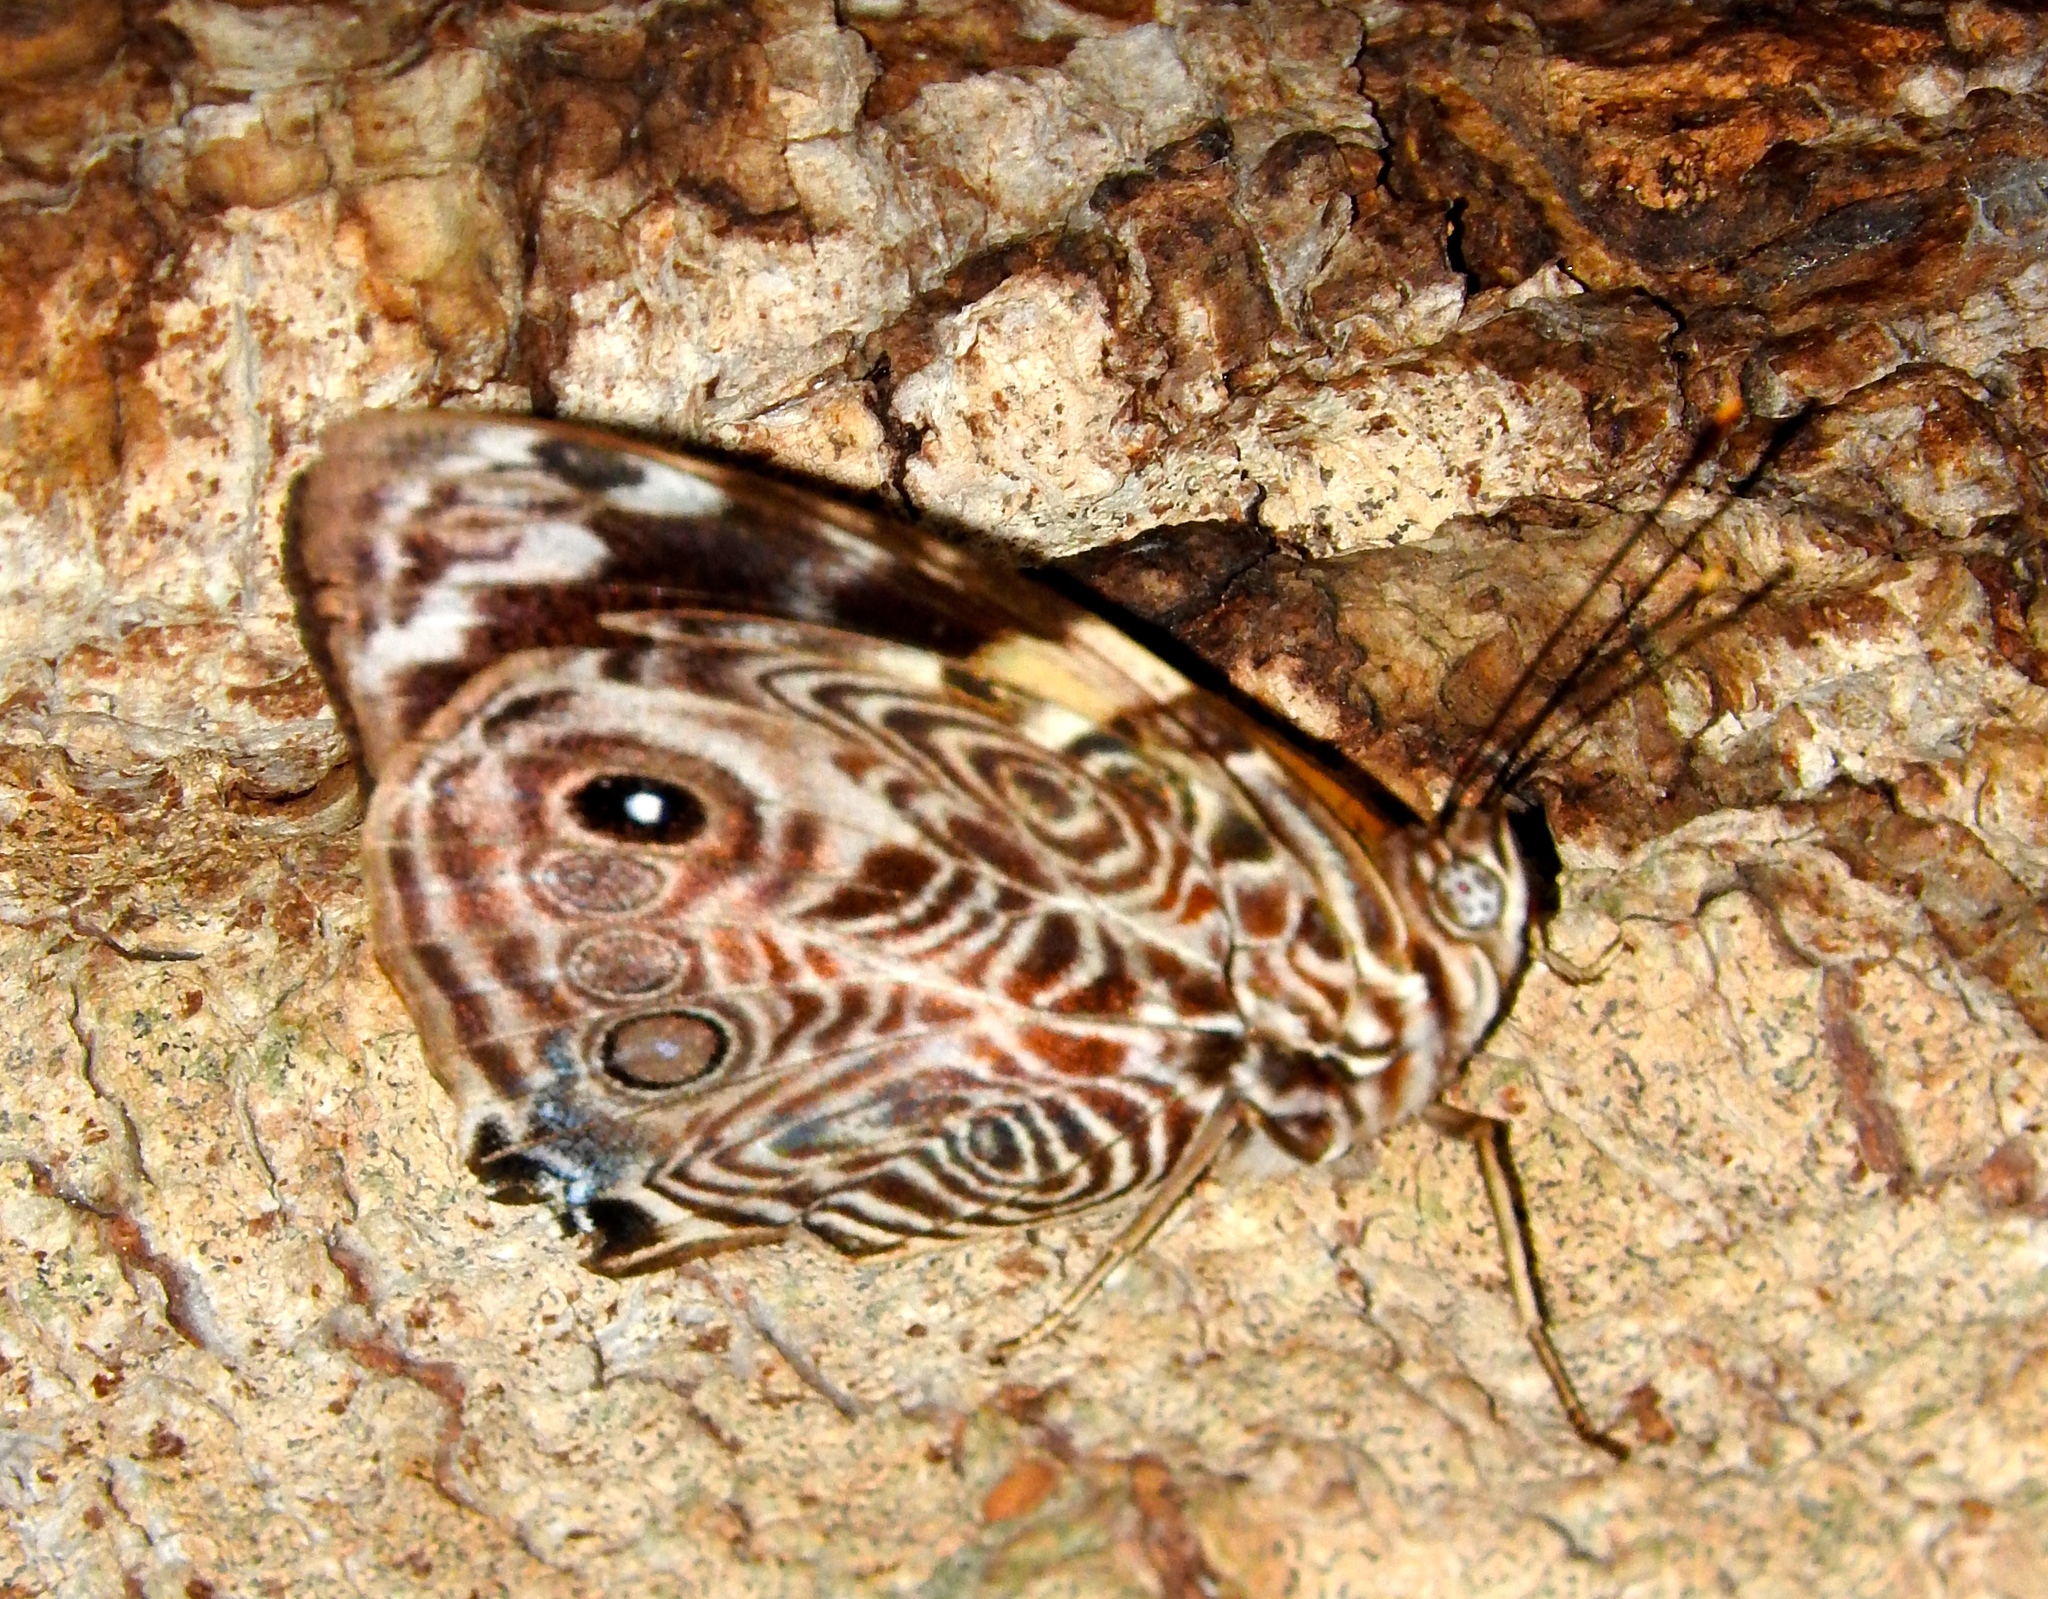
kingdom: Animalia
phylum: Arthropoda
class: Insecta
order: Lepidoptera
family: Nymphalidae
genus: Smyrna
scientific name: Smyrna blomfildia
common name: Blomfild's beauty
